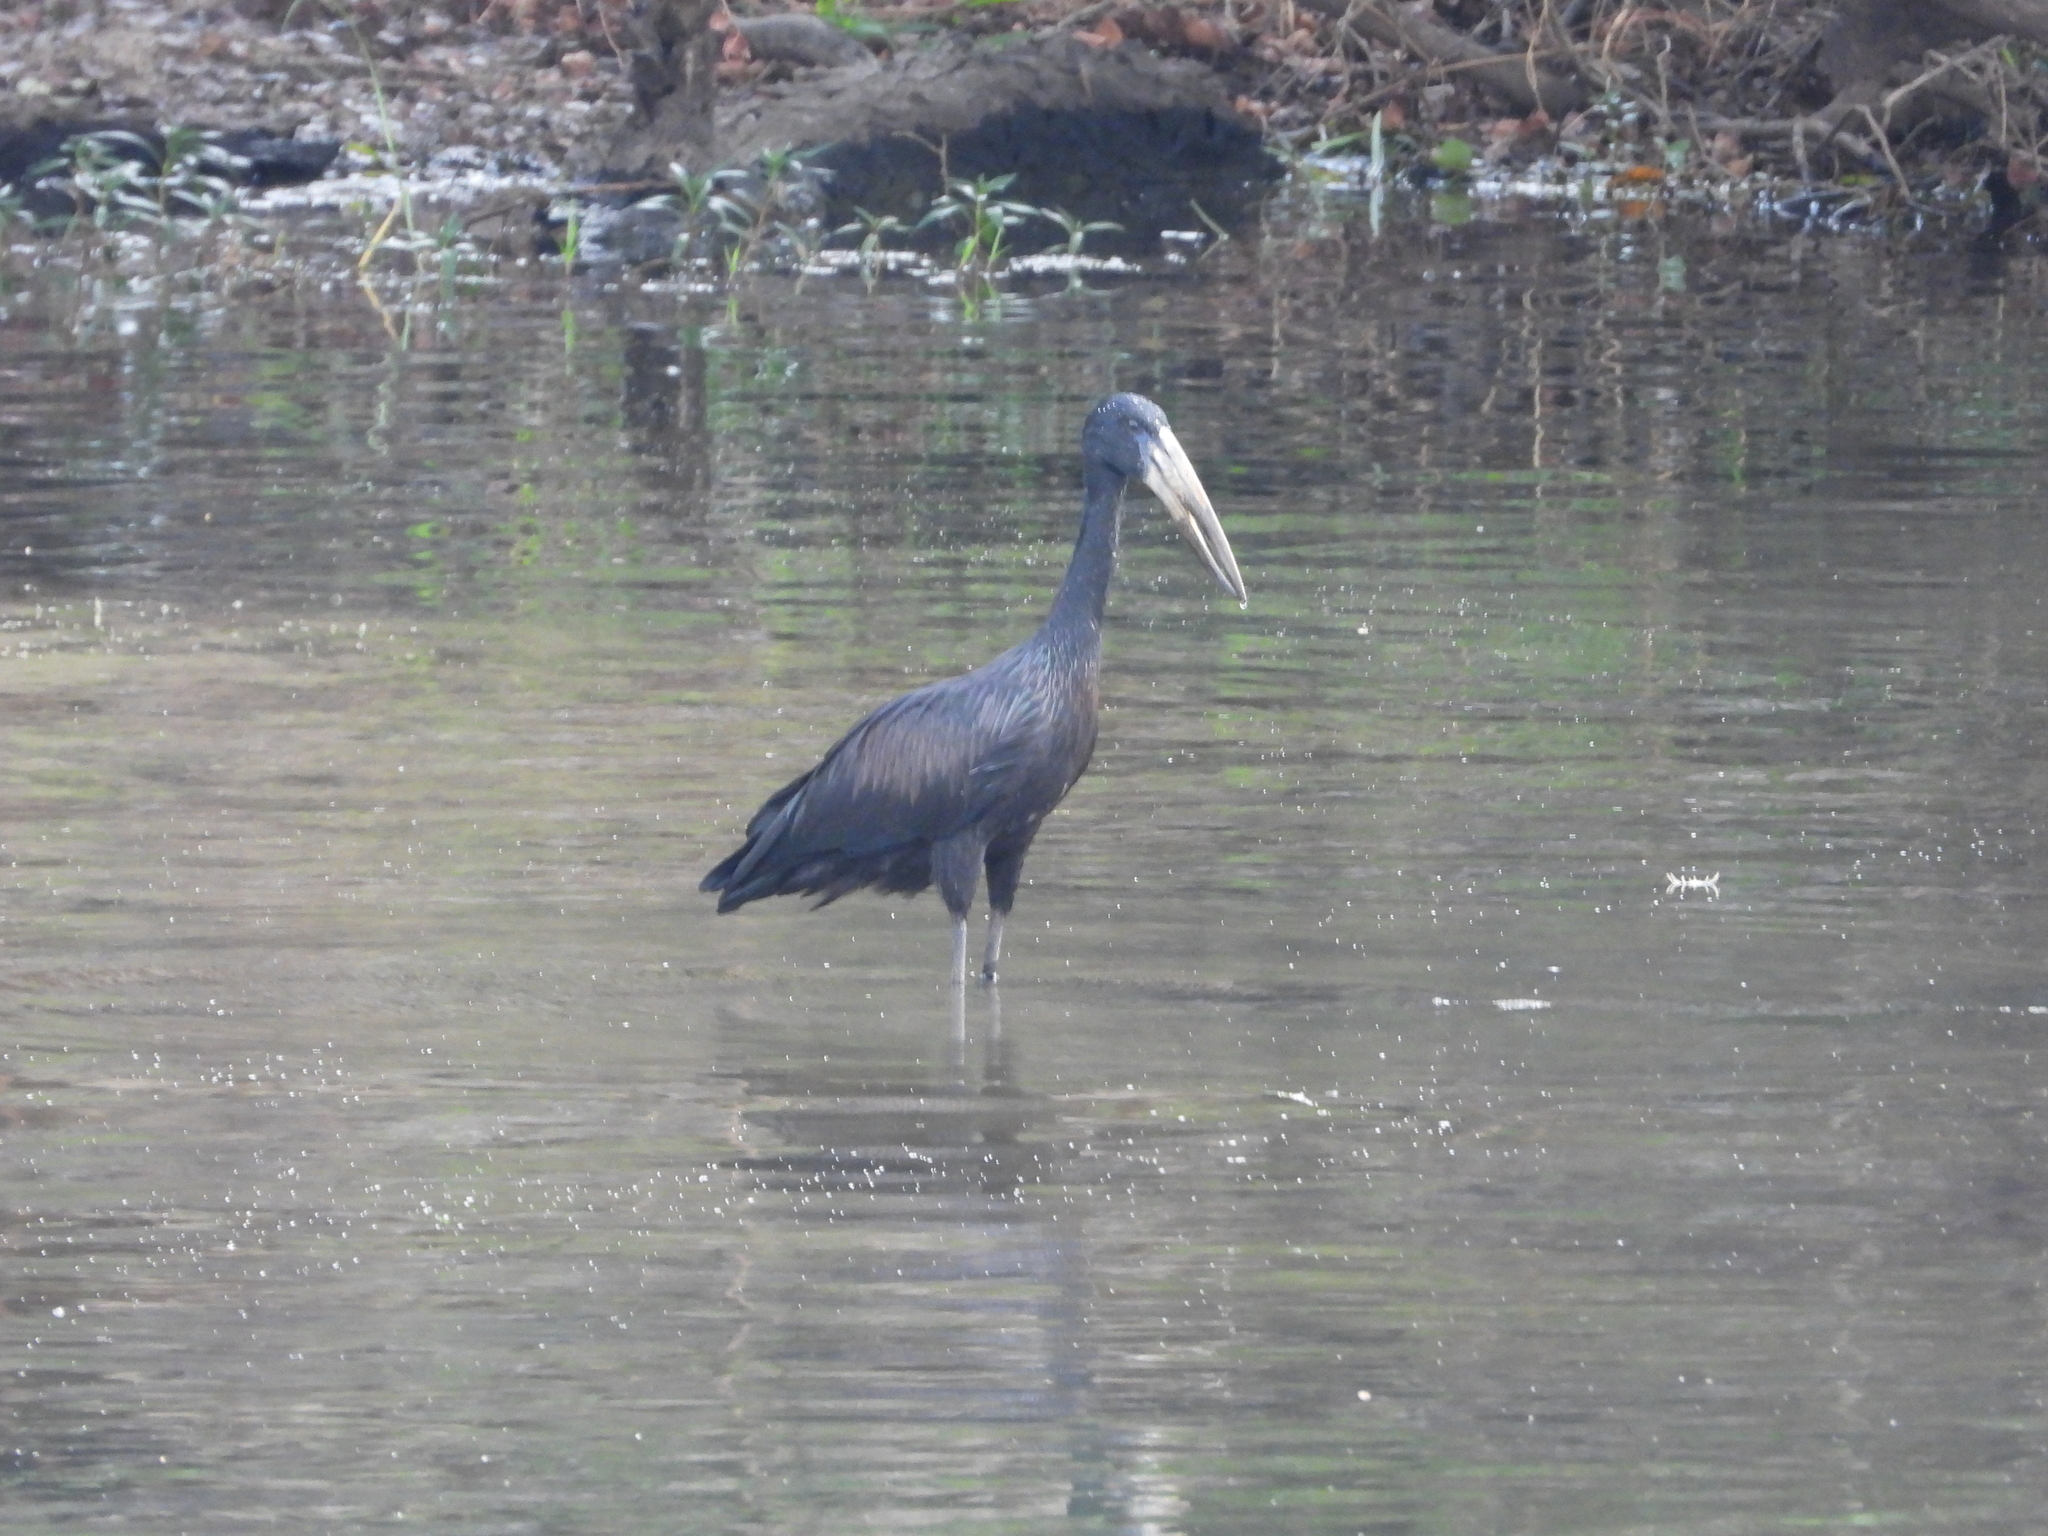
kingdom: Animalia
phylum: Chordata
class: Aves
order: Ciconiiformes
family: Ciconiidae
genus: Anastomus
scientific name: Anastomus lamelligerus
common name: African openbill
